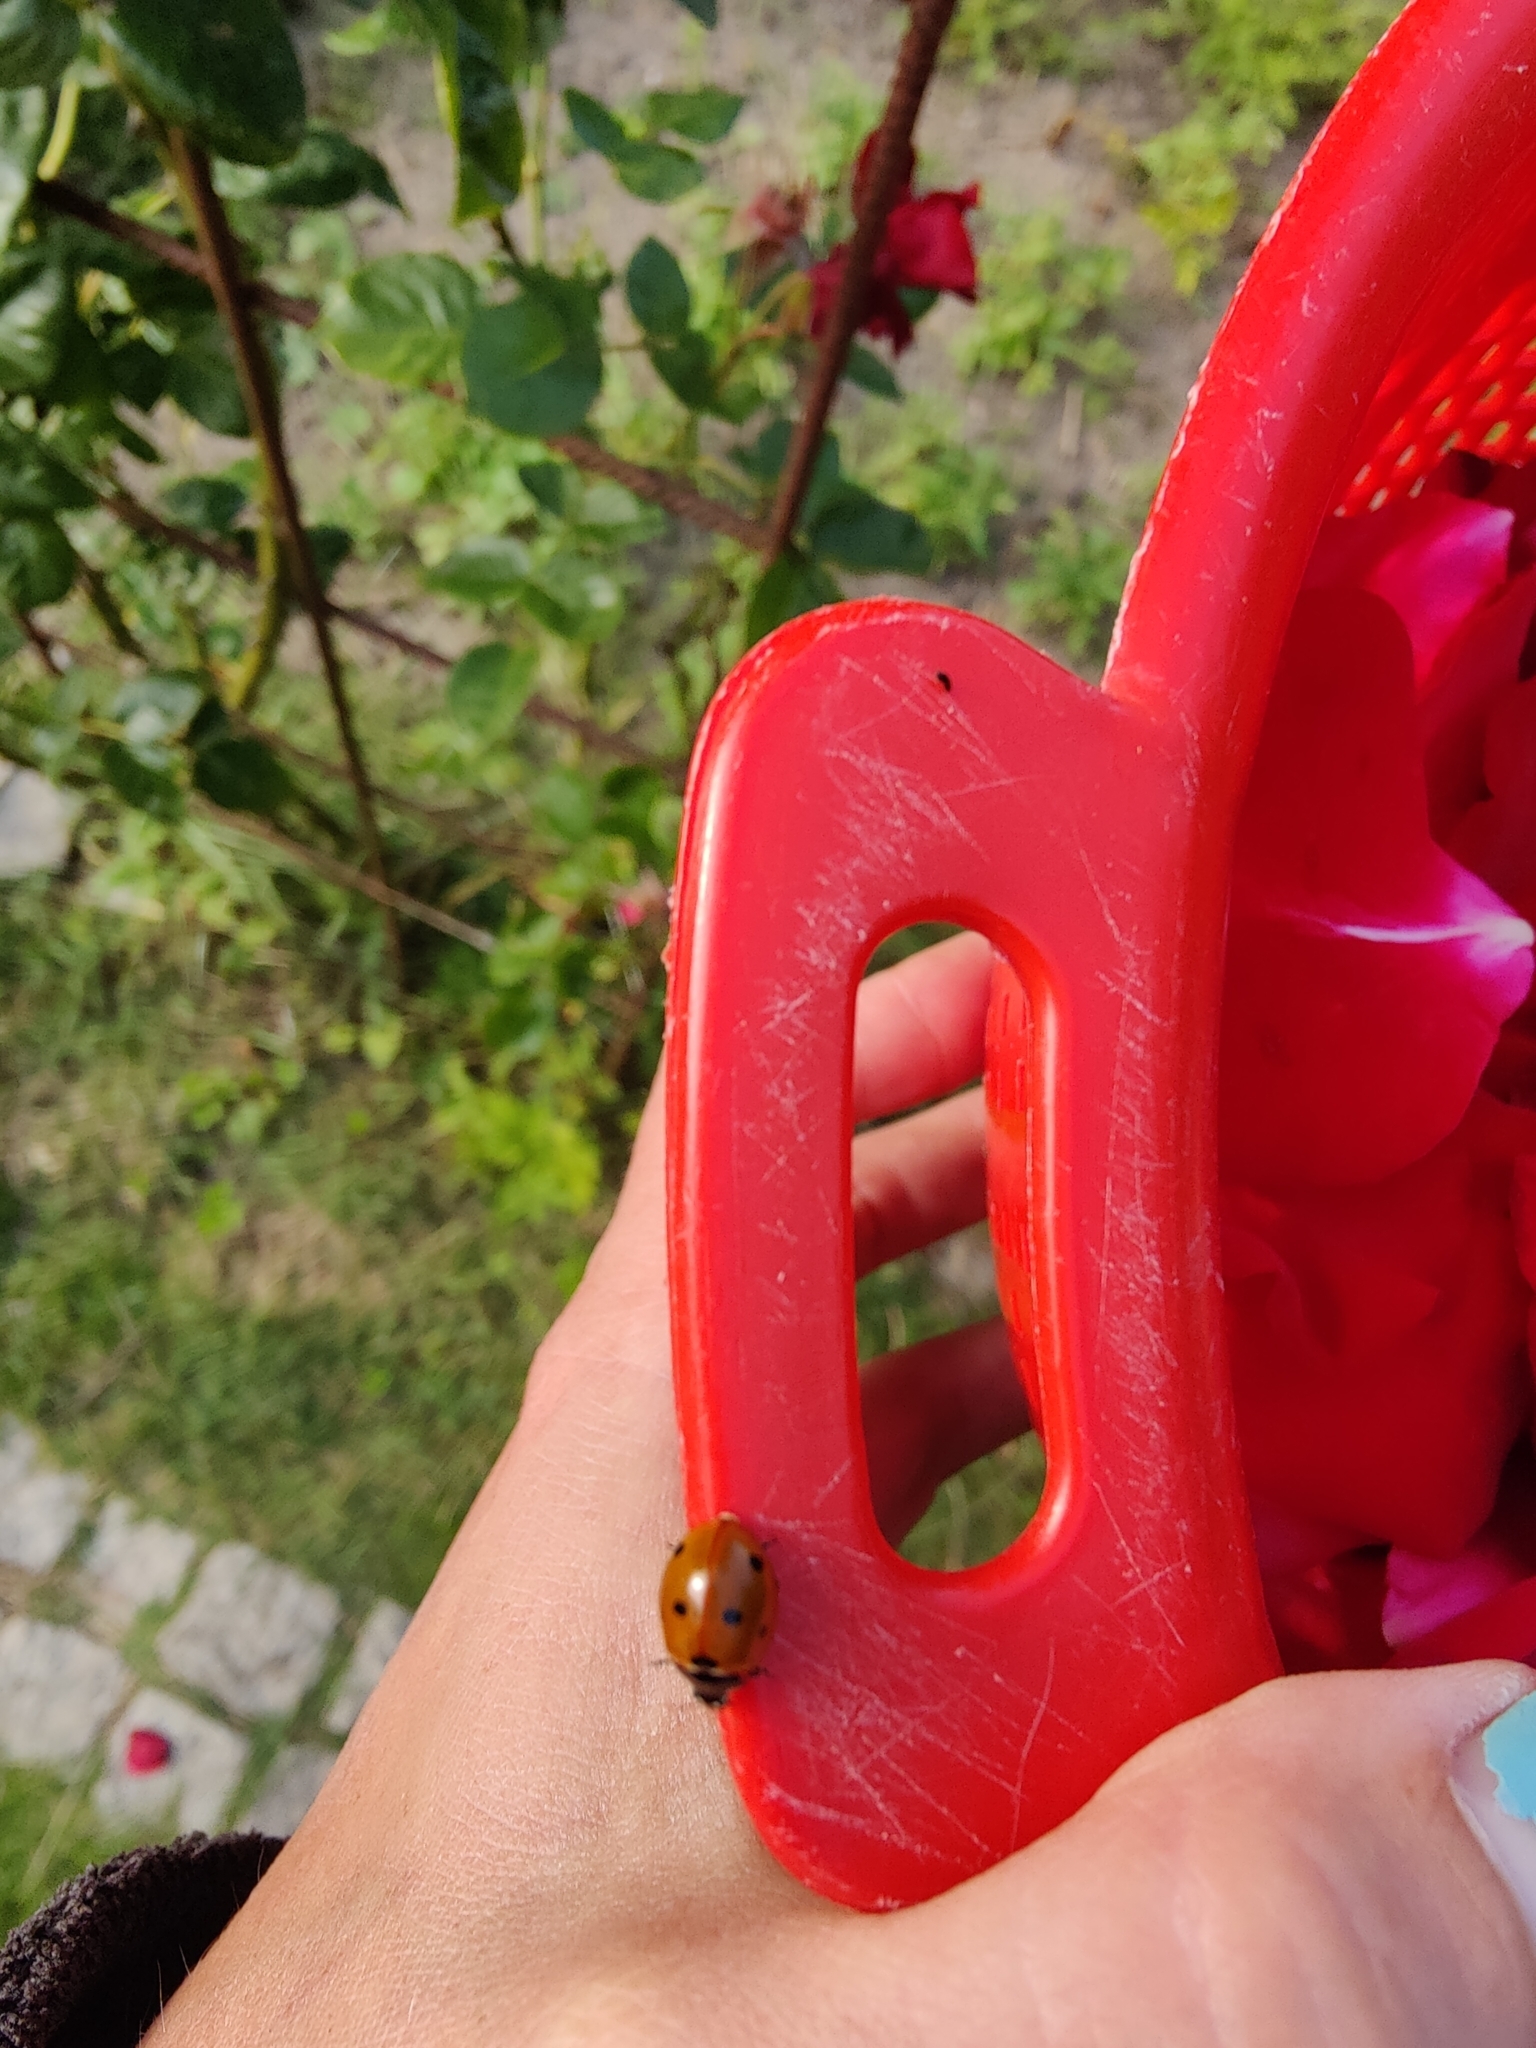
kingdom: Animalia
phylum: Arthropoda
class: Insecta
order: Coleoptera
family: Coccinellidae
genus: Coccinella
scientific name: Coccinella septempunctata
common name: Sevenspotted lady beetle
